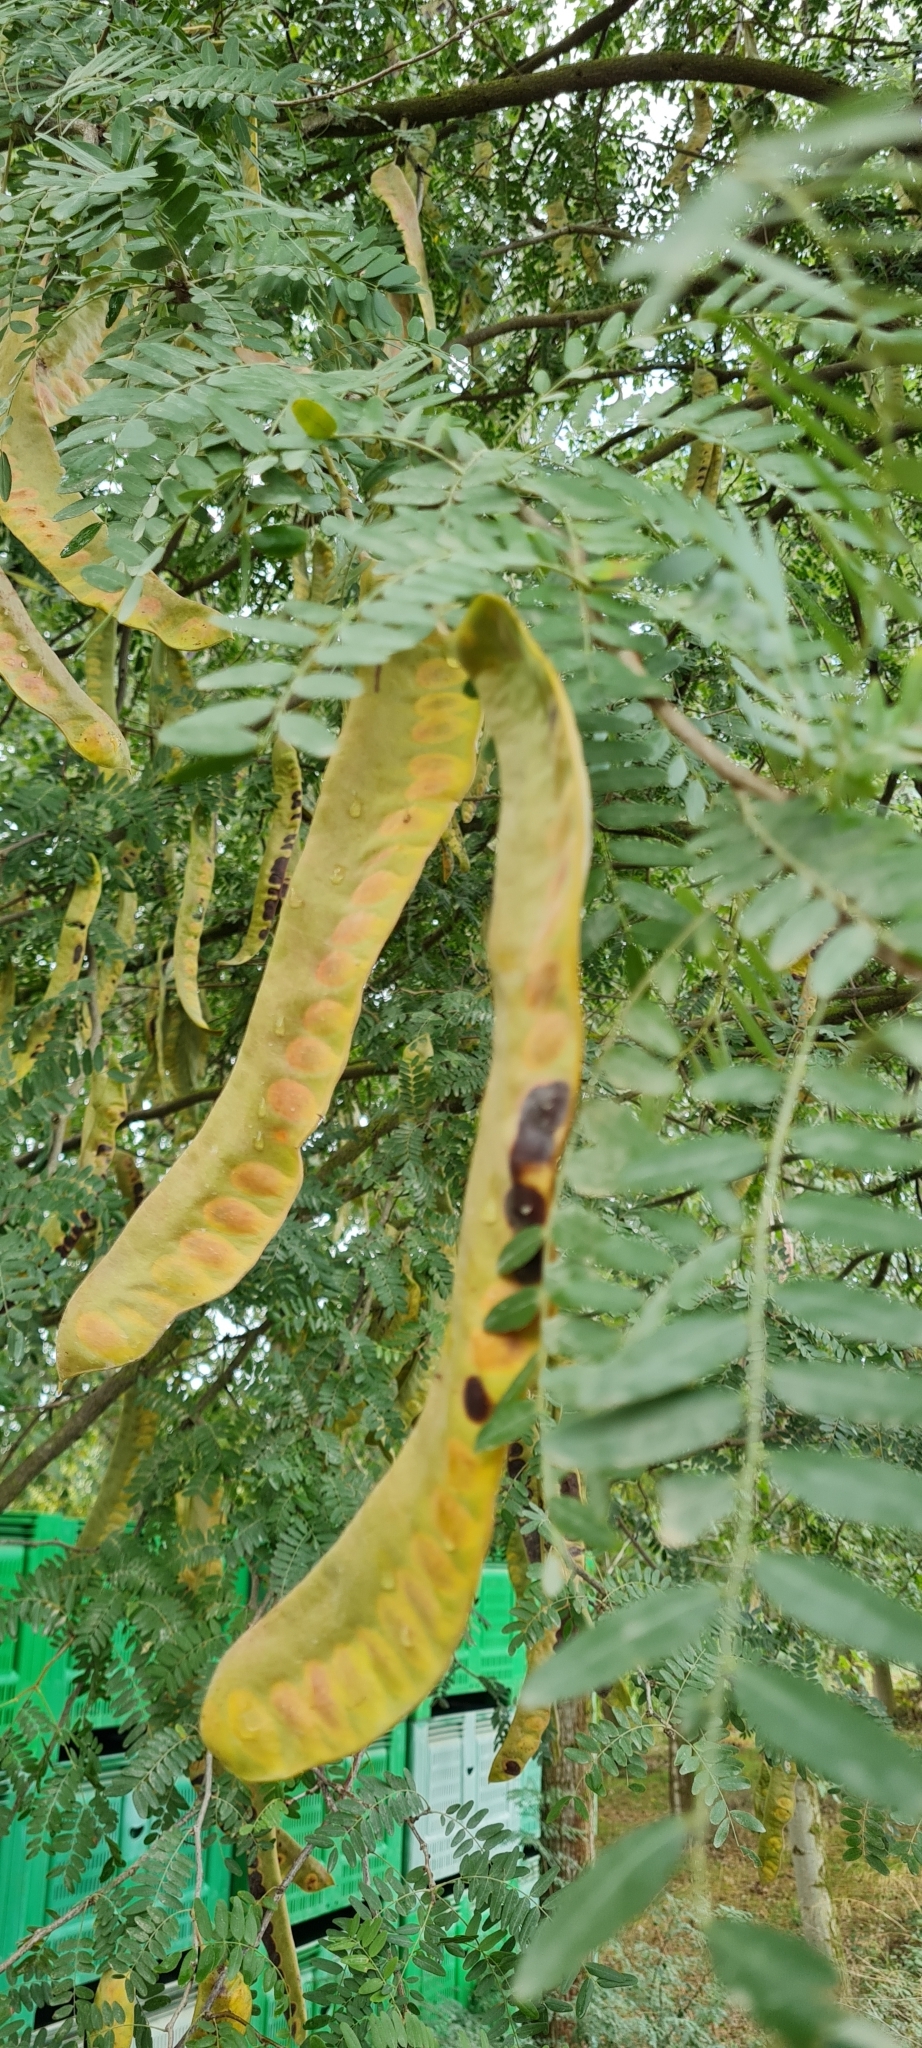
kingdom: Plantae
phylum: Tracheophyta
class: Magnoliopsida
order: Fabales
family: Fabaceae
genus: Gleditsia
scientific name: Gleditsia triacanthos
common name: Common honeylocust
